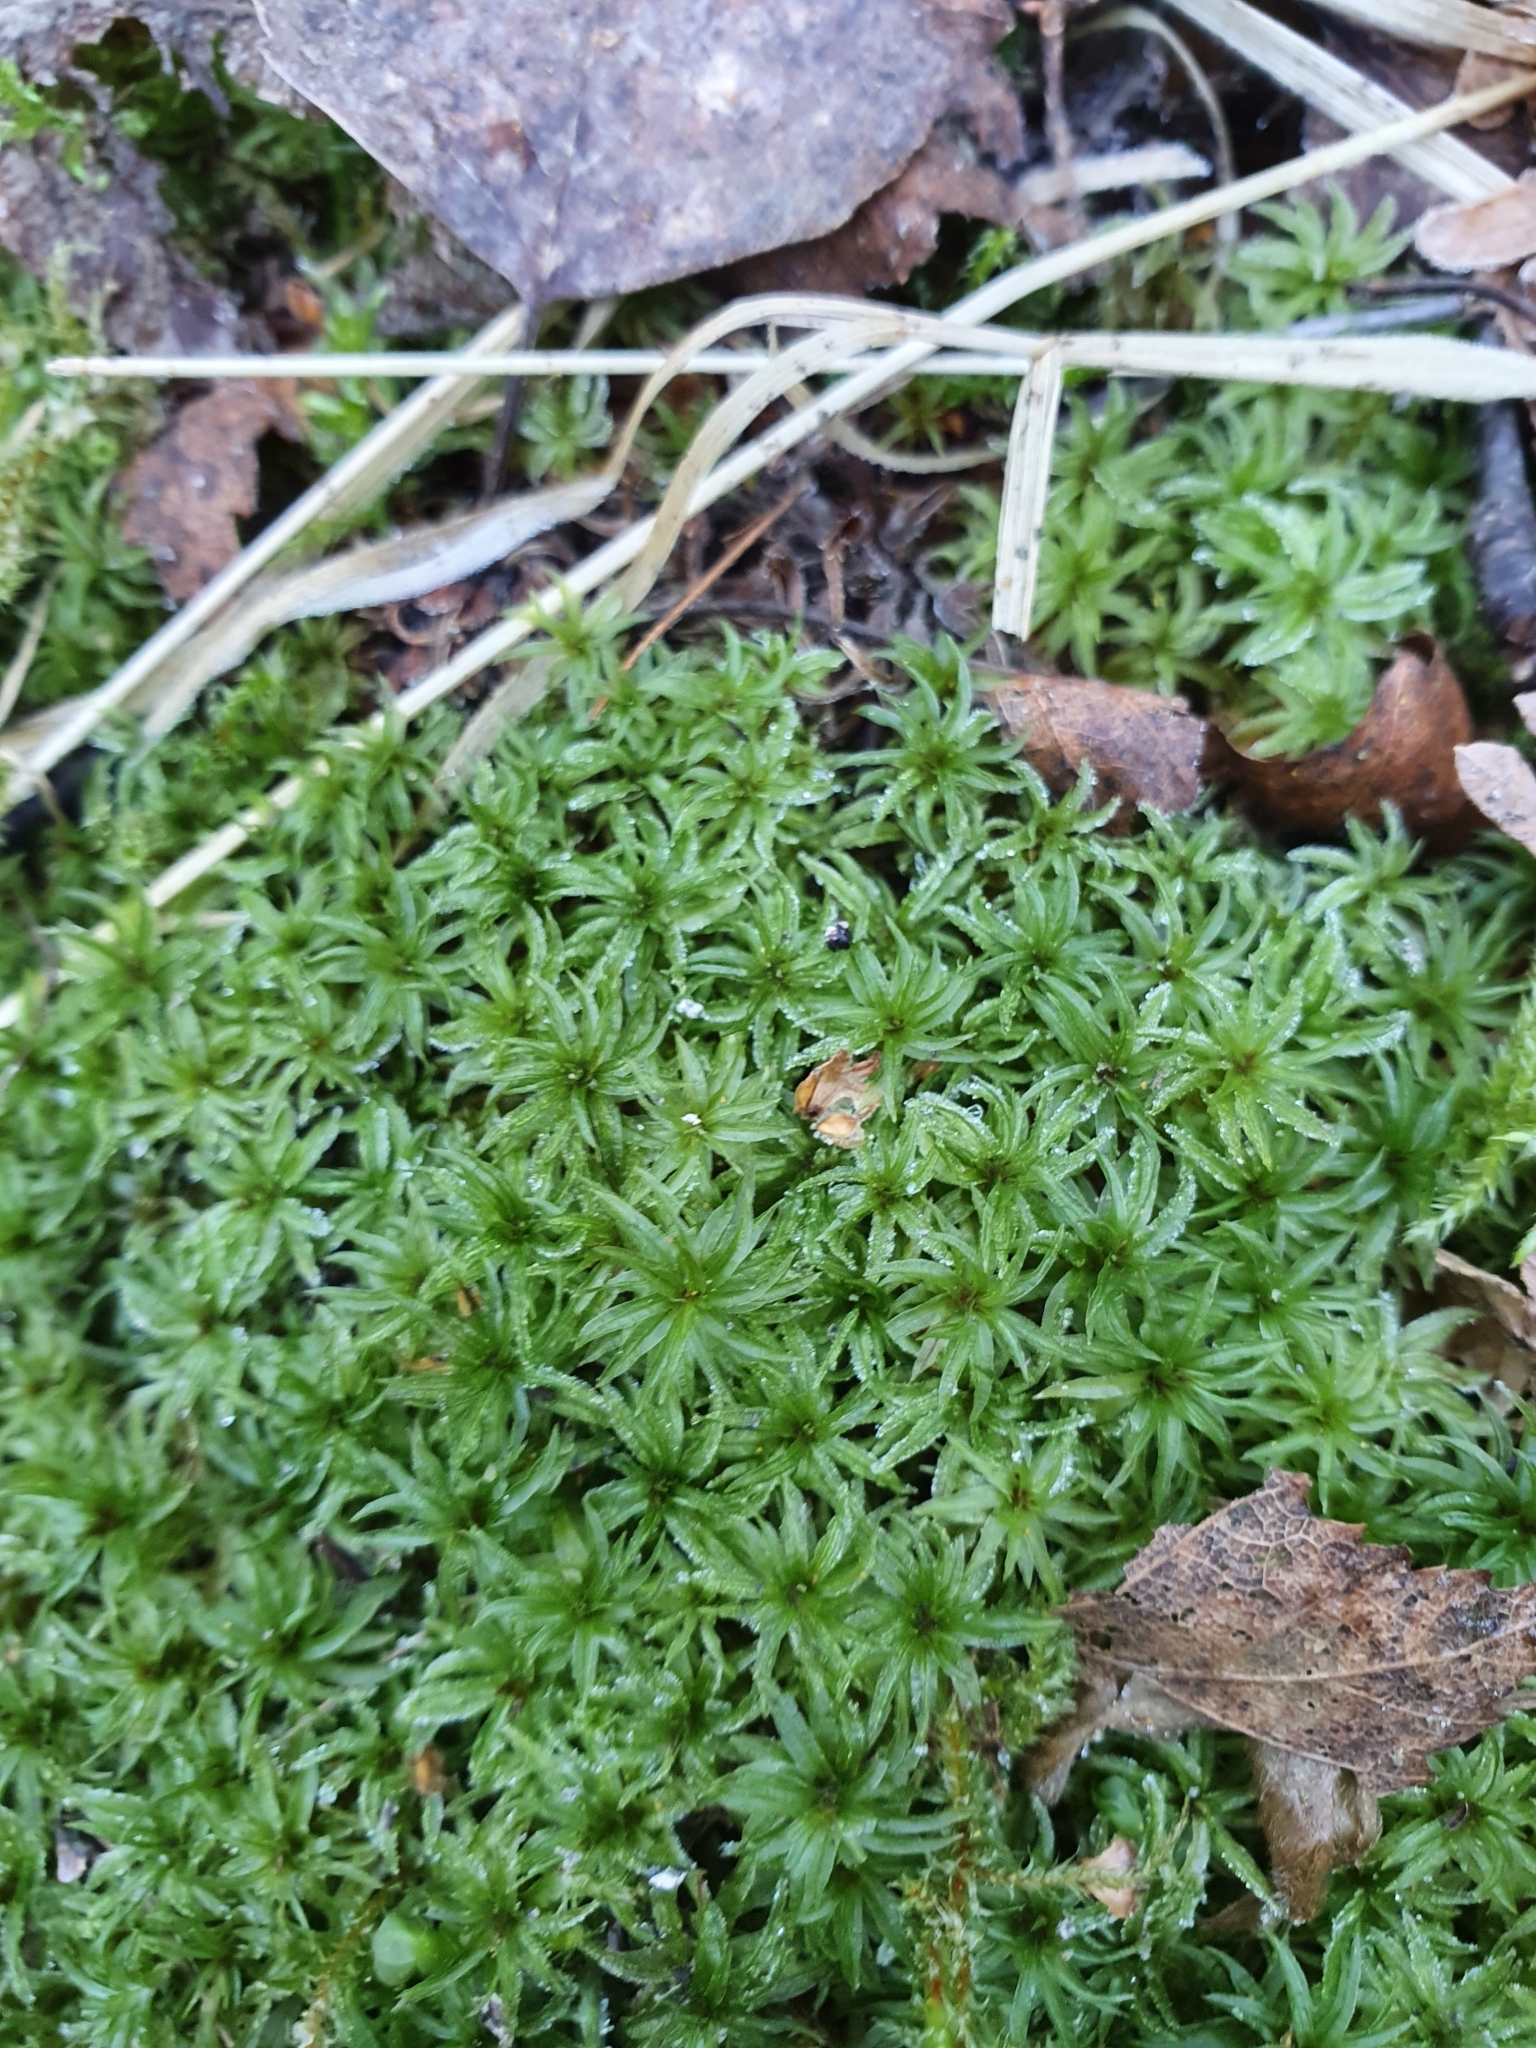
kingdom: Plantae
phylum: Bryophyta
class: Polytrichopsida
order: Polytrichales
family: Polytrichaceae
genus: Atrichum
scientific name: Atrichum undulatum
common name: Common smoothcap
